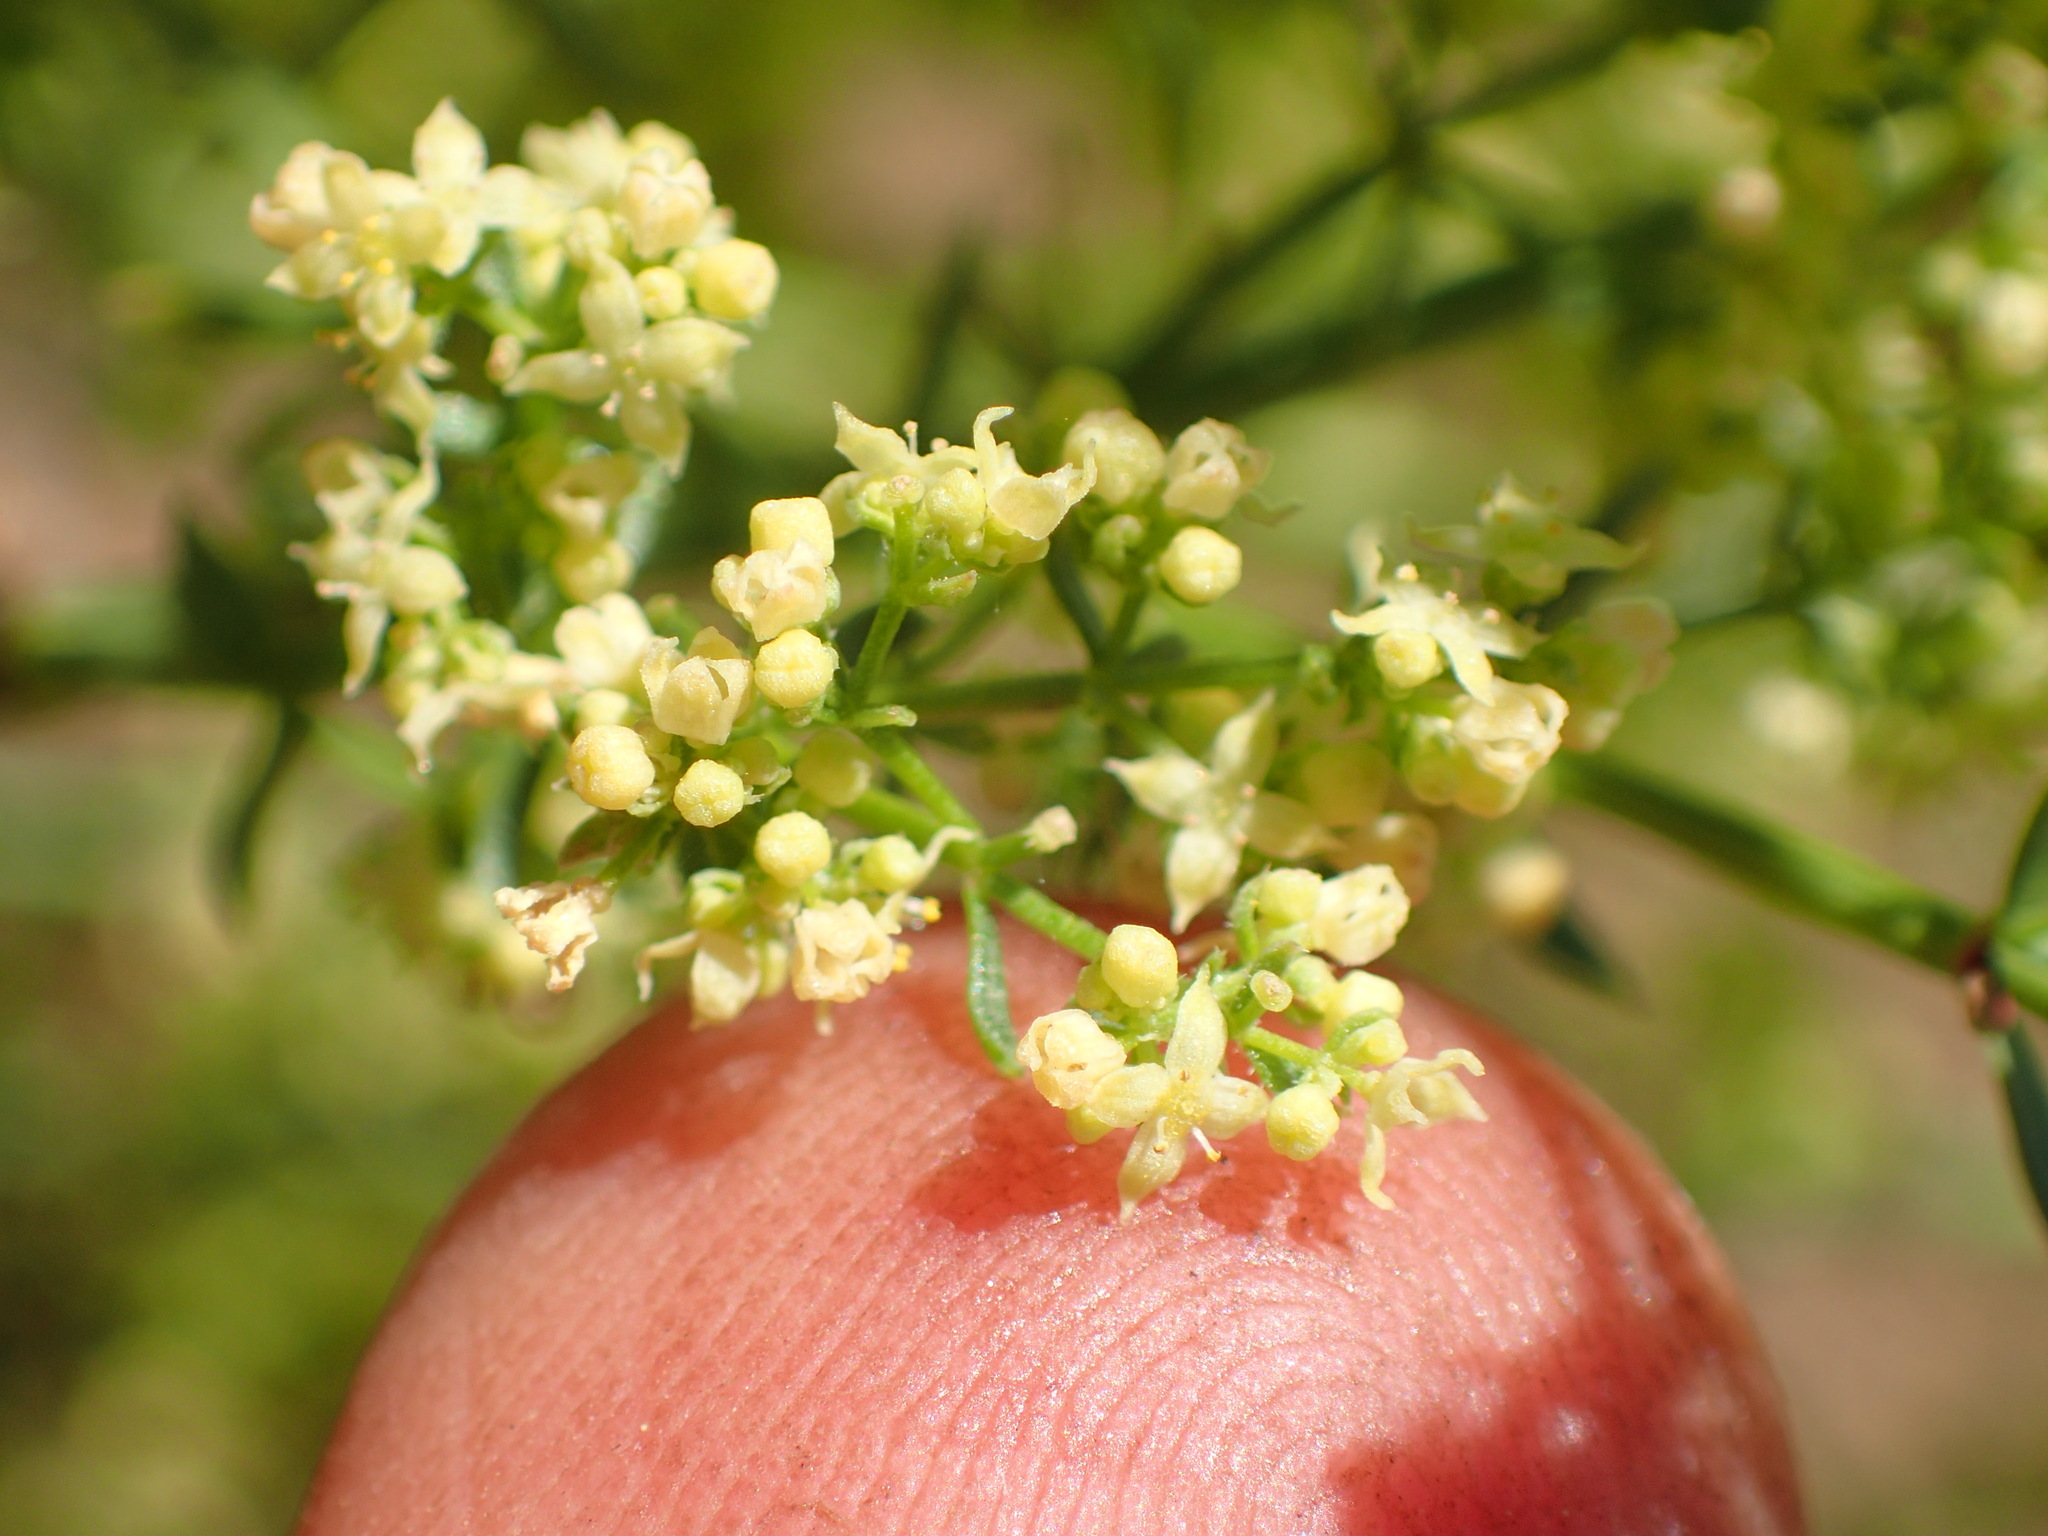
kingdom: Plantae
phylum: Tracheophyta
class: Magnoliopsida
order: Gentianales
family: Rubiaceae
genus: Galium
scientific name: Galium angustifolium
